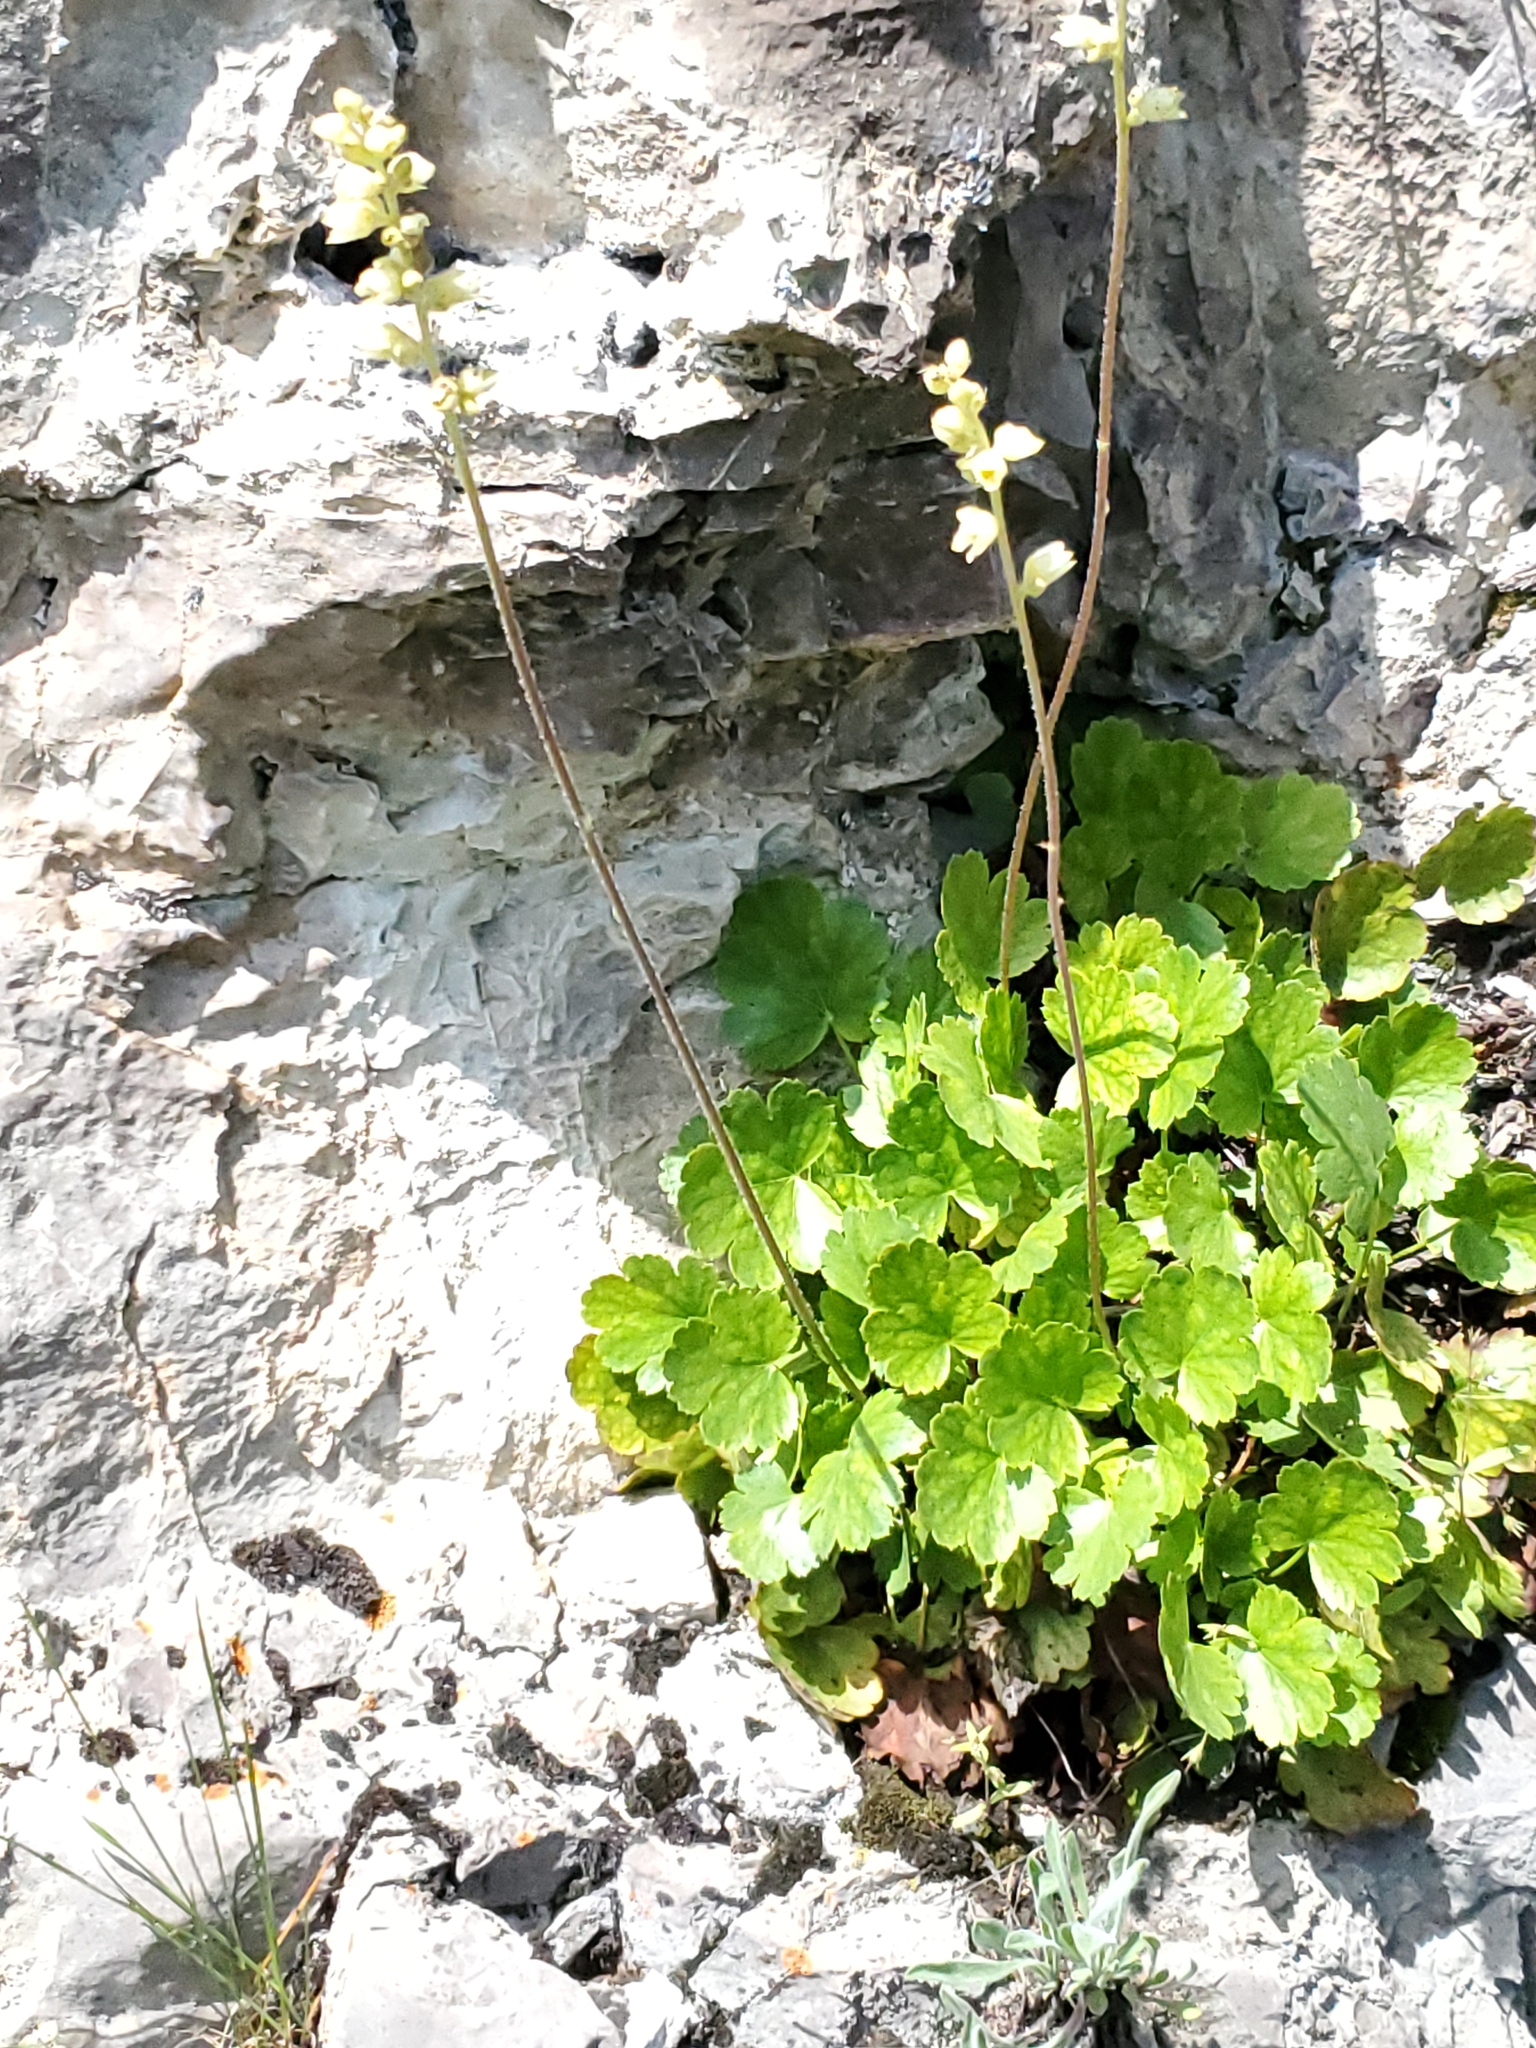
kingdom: Plantae
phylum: Tracheophyta
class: Magnoliopsida
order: Saxifragales
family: Saxifragaceae
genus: Heuchera
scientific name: Heuchera cylindrica
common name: Mat alumroot
